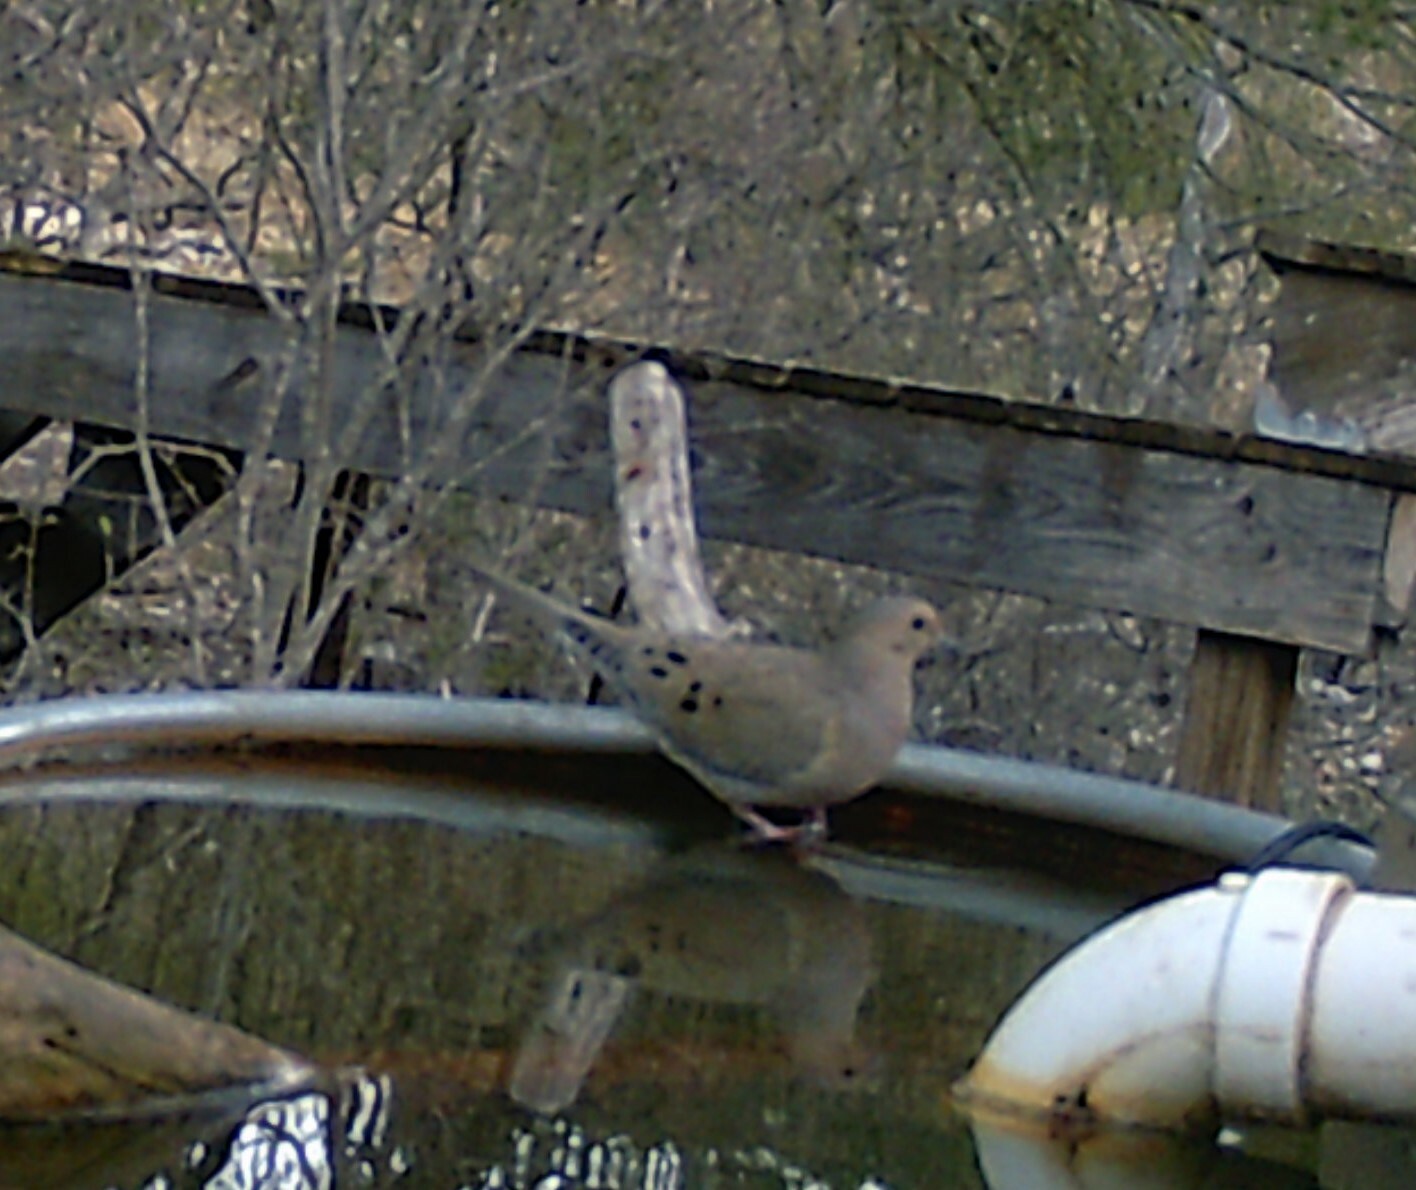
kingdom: Animalia
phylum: Chordata
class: Aves
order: Columbiformes
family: Columbidae
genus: Zenaida
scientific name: Zenaida macroura
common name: Mourning dove
